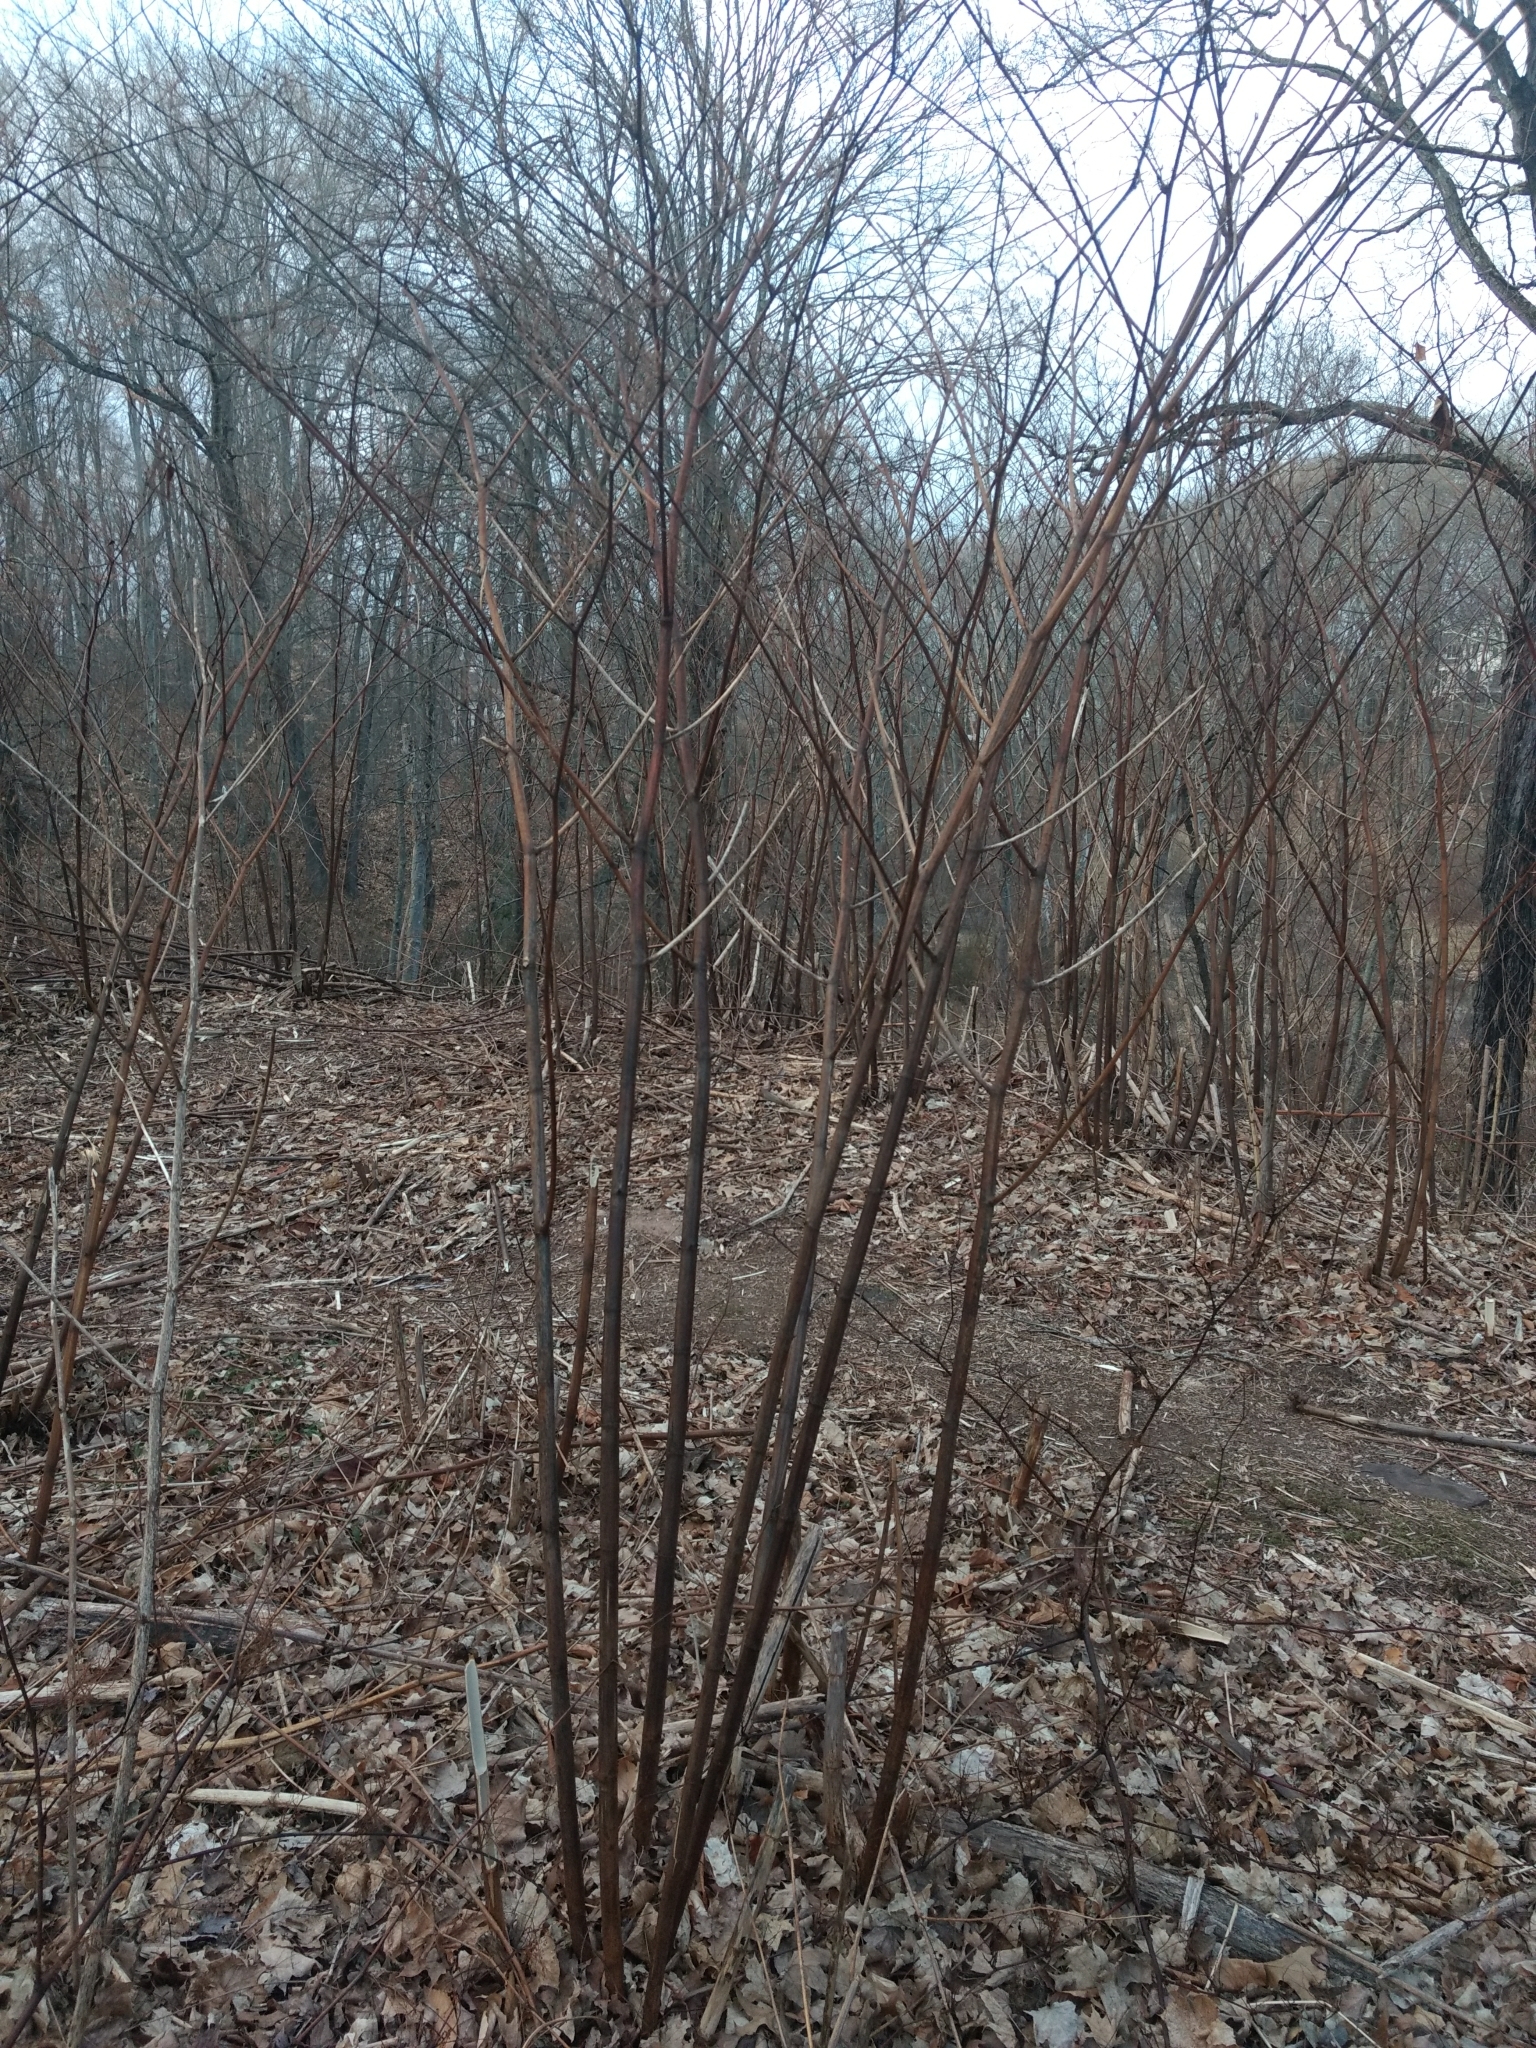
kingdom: Plantae
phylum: Tracheophyta
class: Magnoliopsida
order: Caryophyllales
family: Polygonaceae
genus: Reynoutria
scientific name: Reynoutria japonica
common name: Japanese knotweed
